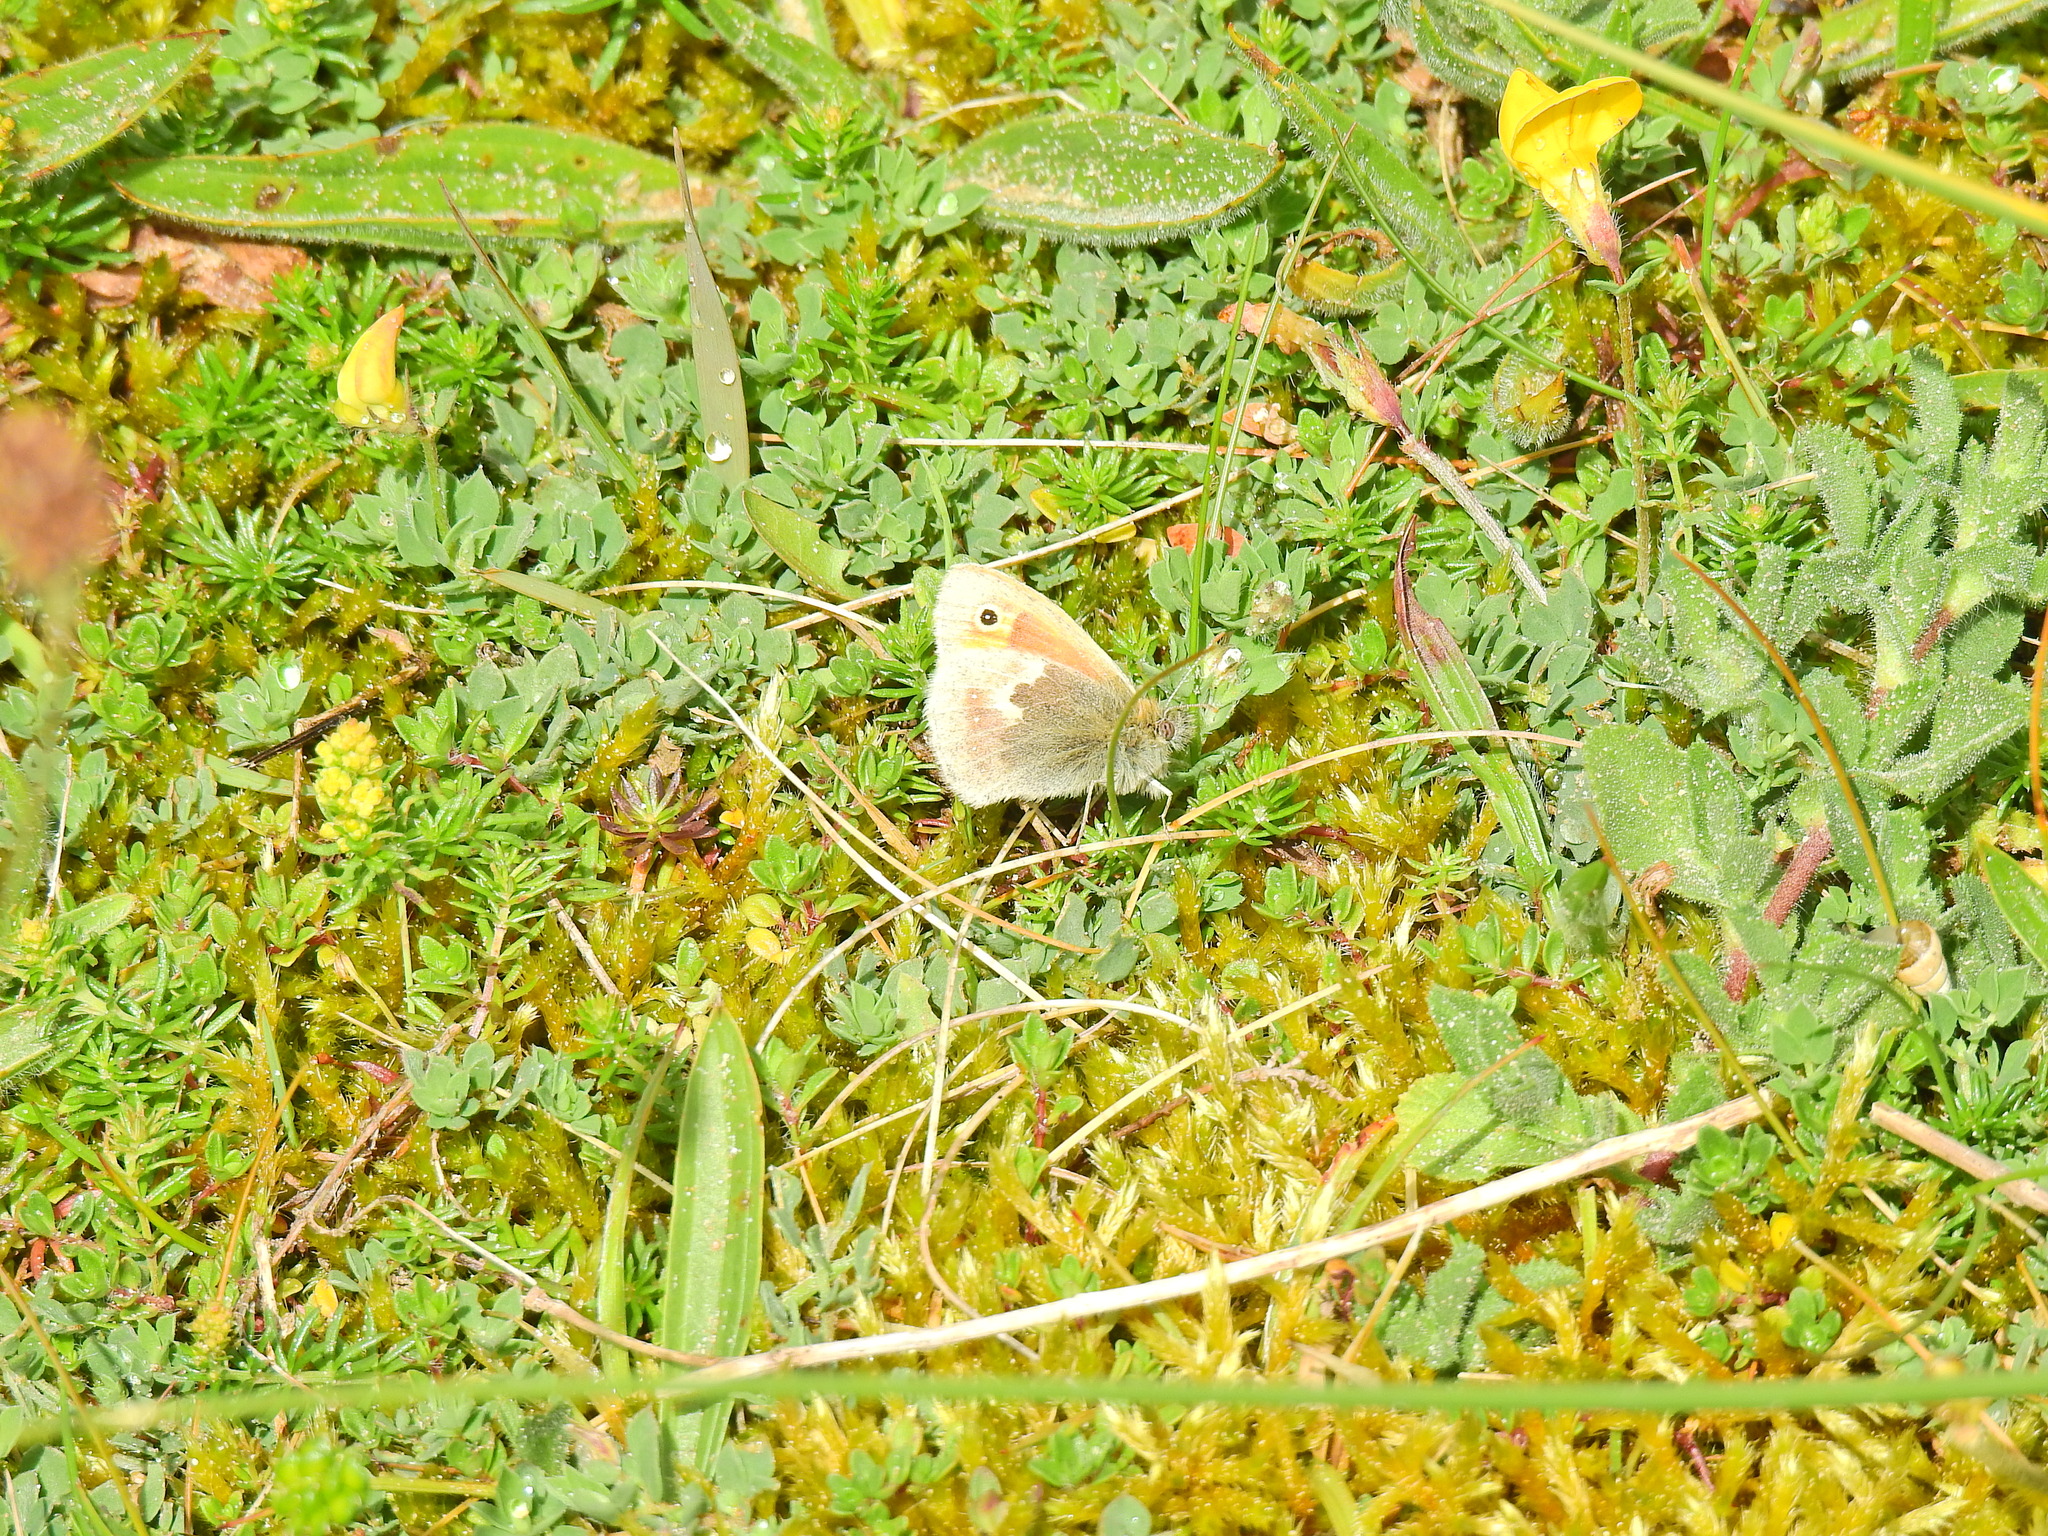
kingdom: Animalia
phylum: Arthropoda
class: Insecta
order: Lepidoptera
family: Nymphalidae
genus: Coenonympha
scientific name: Coenonympha pamphilus
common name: Small heath
